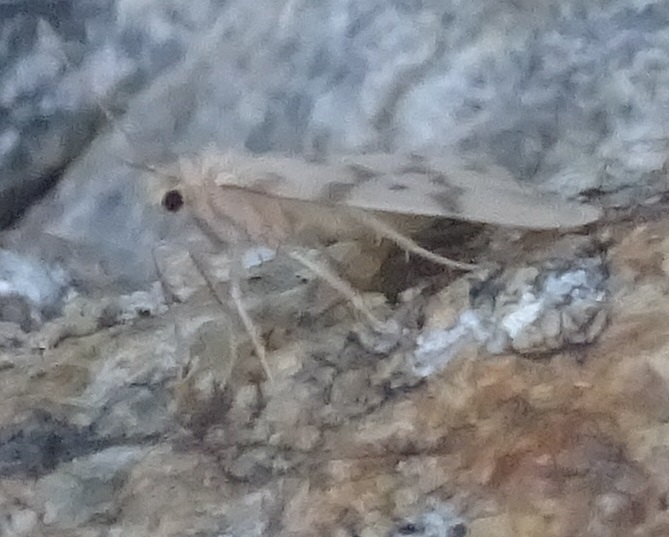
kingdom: Animalia
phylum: Arthropoda
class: Insecta
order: Lepidoptera
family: Erebidae
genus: Nudaria
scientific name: Nudaria mundana
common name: Muslin footman
